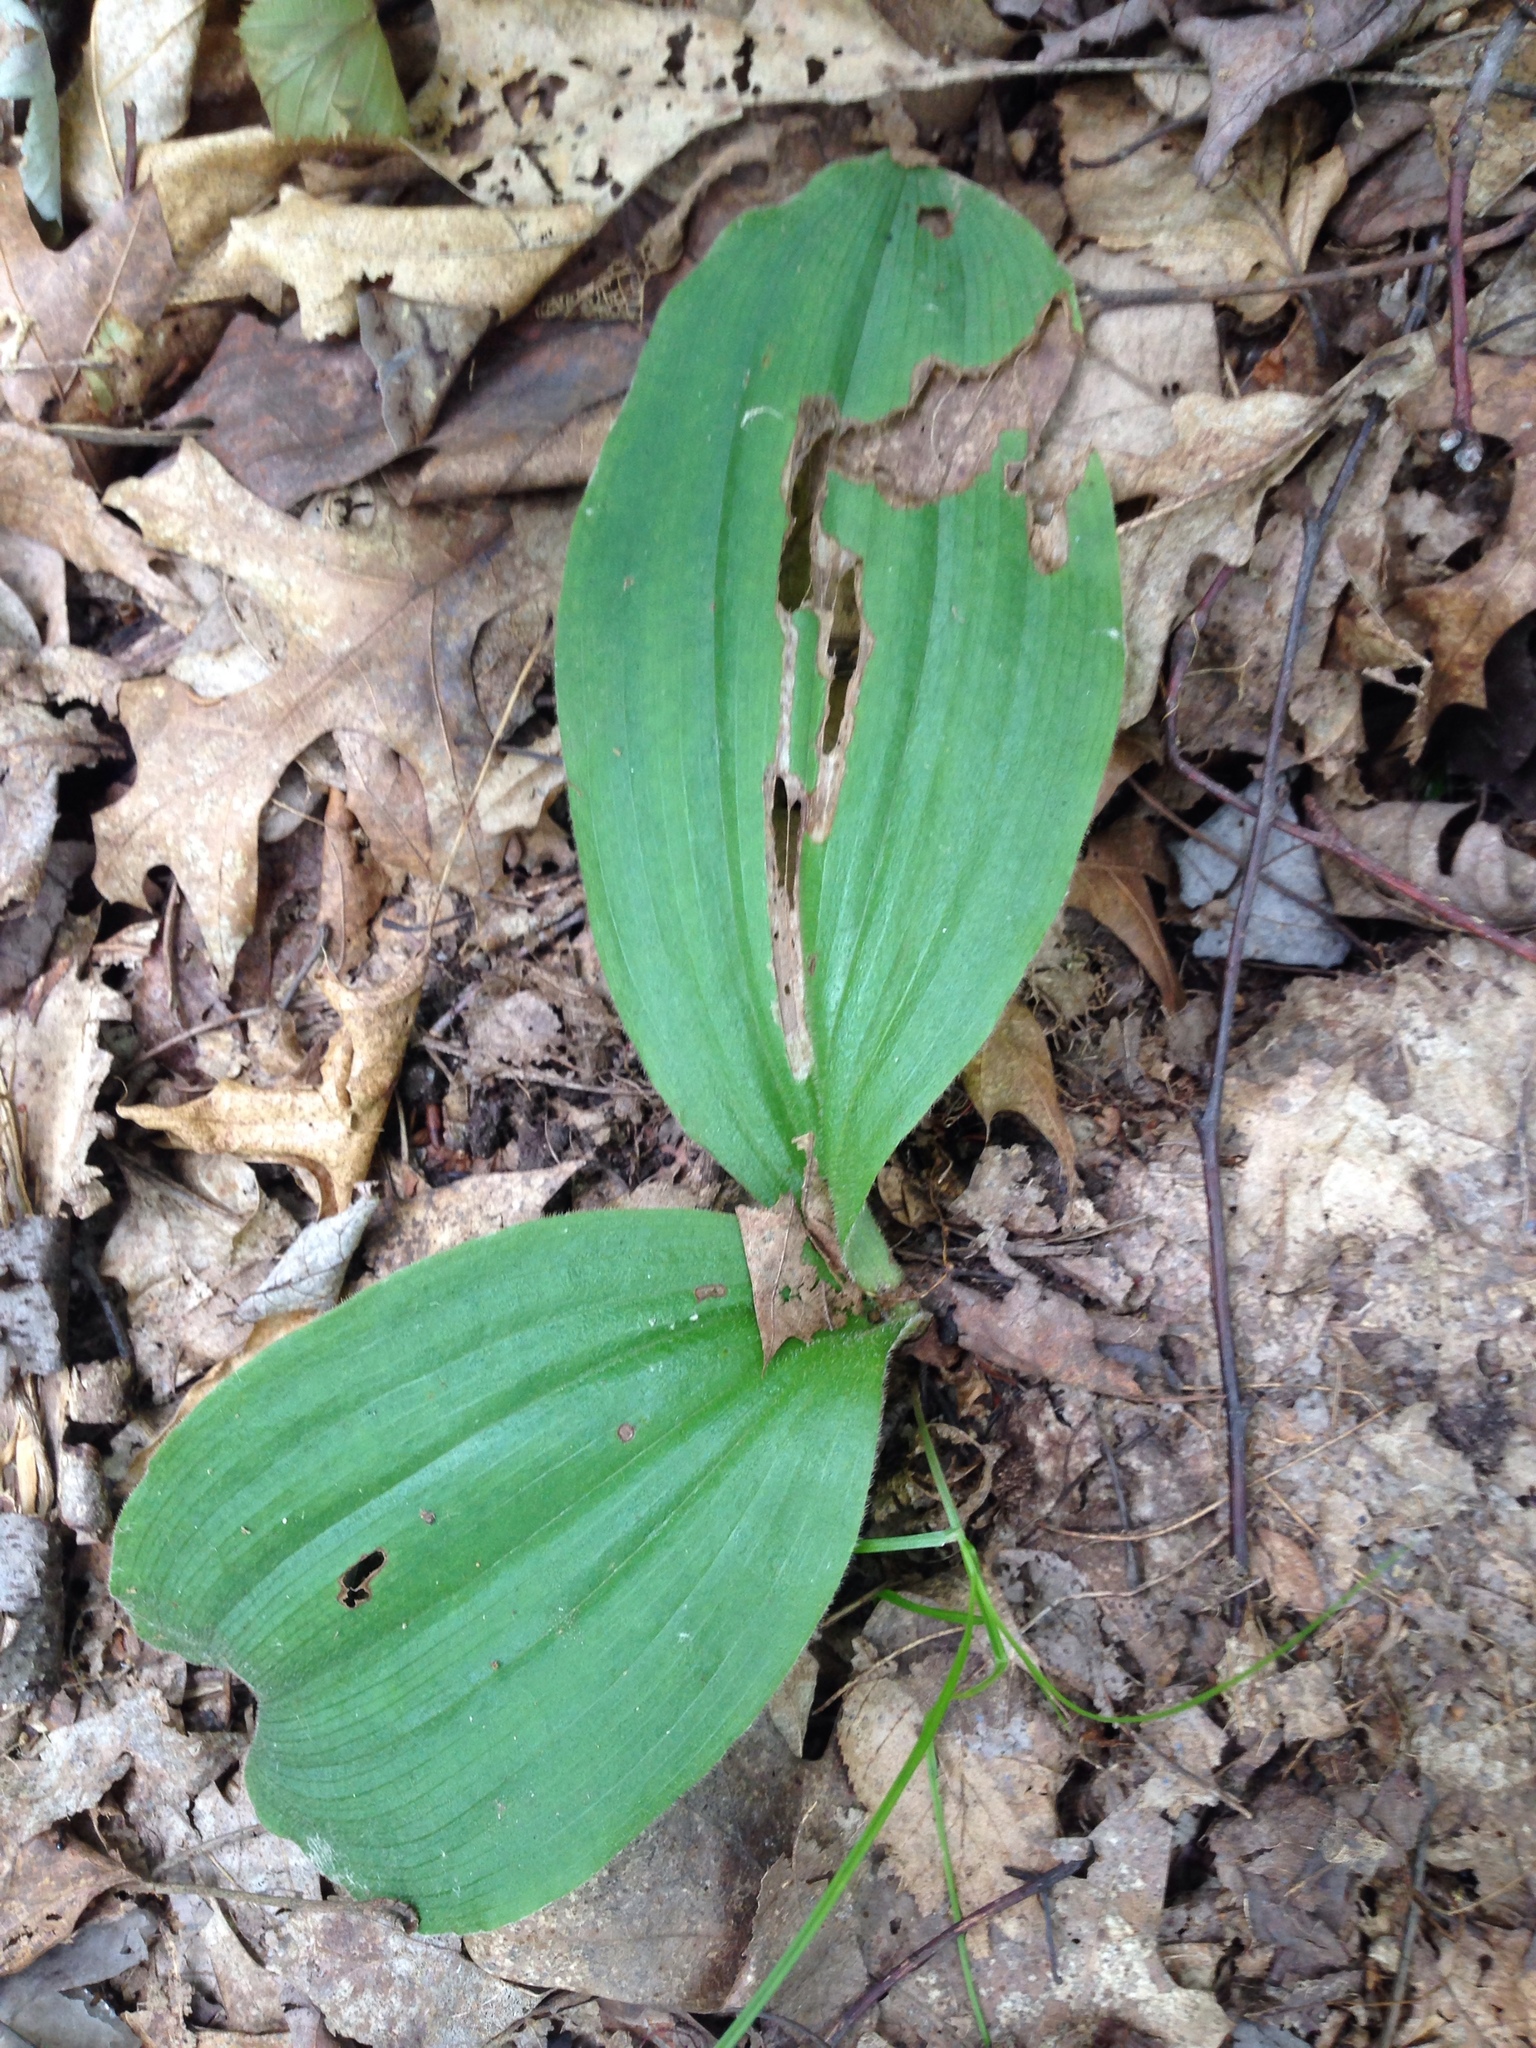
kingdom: Plantae
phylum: Tracheophyta
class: Liliopsida
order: Asparagales
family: Orchidaceae
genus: Cypripedium
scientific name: Cypripedium acaule
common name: Pink lady's-slipper
